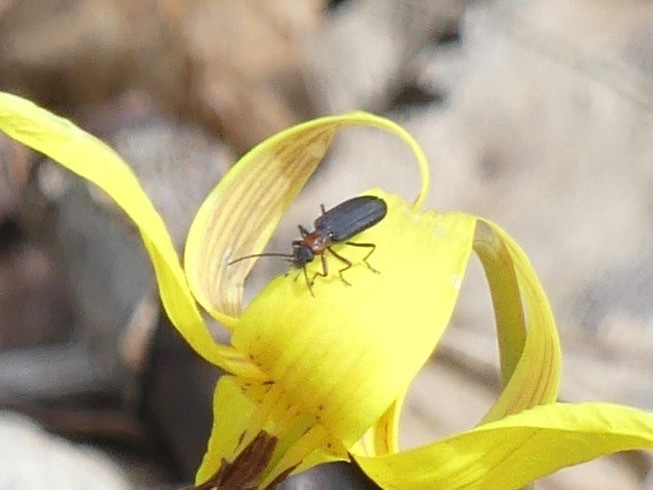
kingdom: Animalia
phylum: Arthropoda
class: Insecta
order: Coleoptera
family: Oedemeridae
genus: Ischnomera
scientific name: Ischnomera
